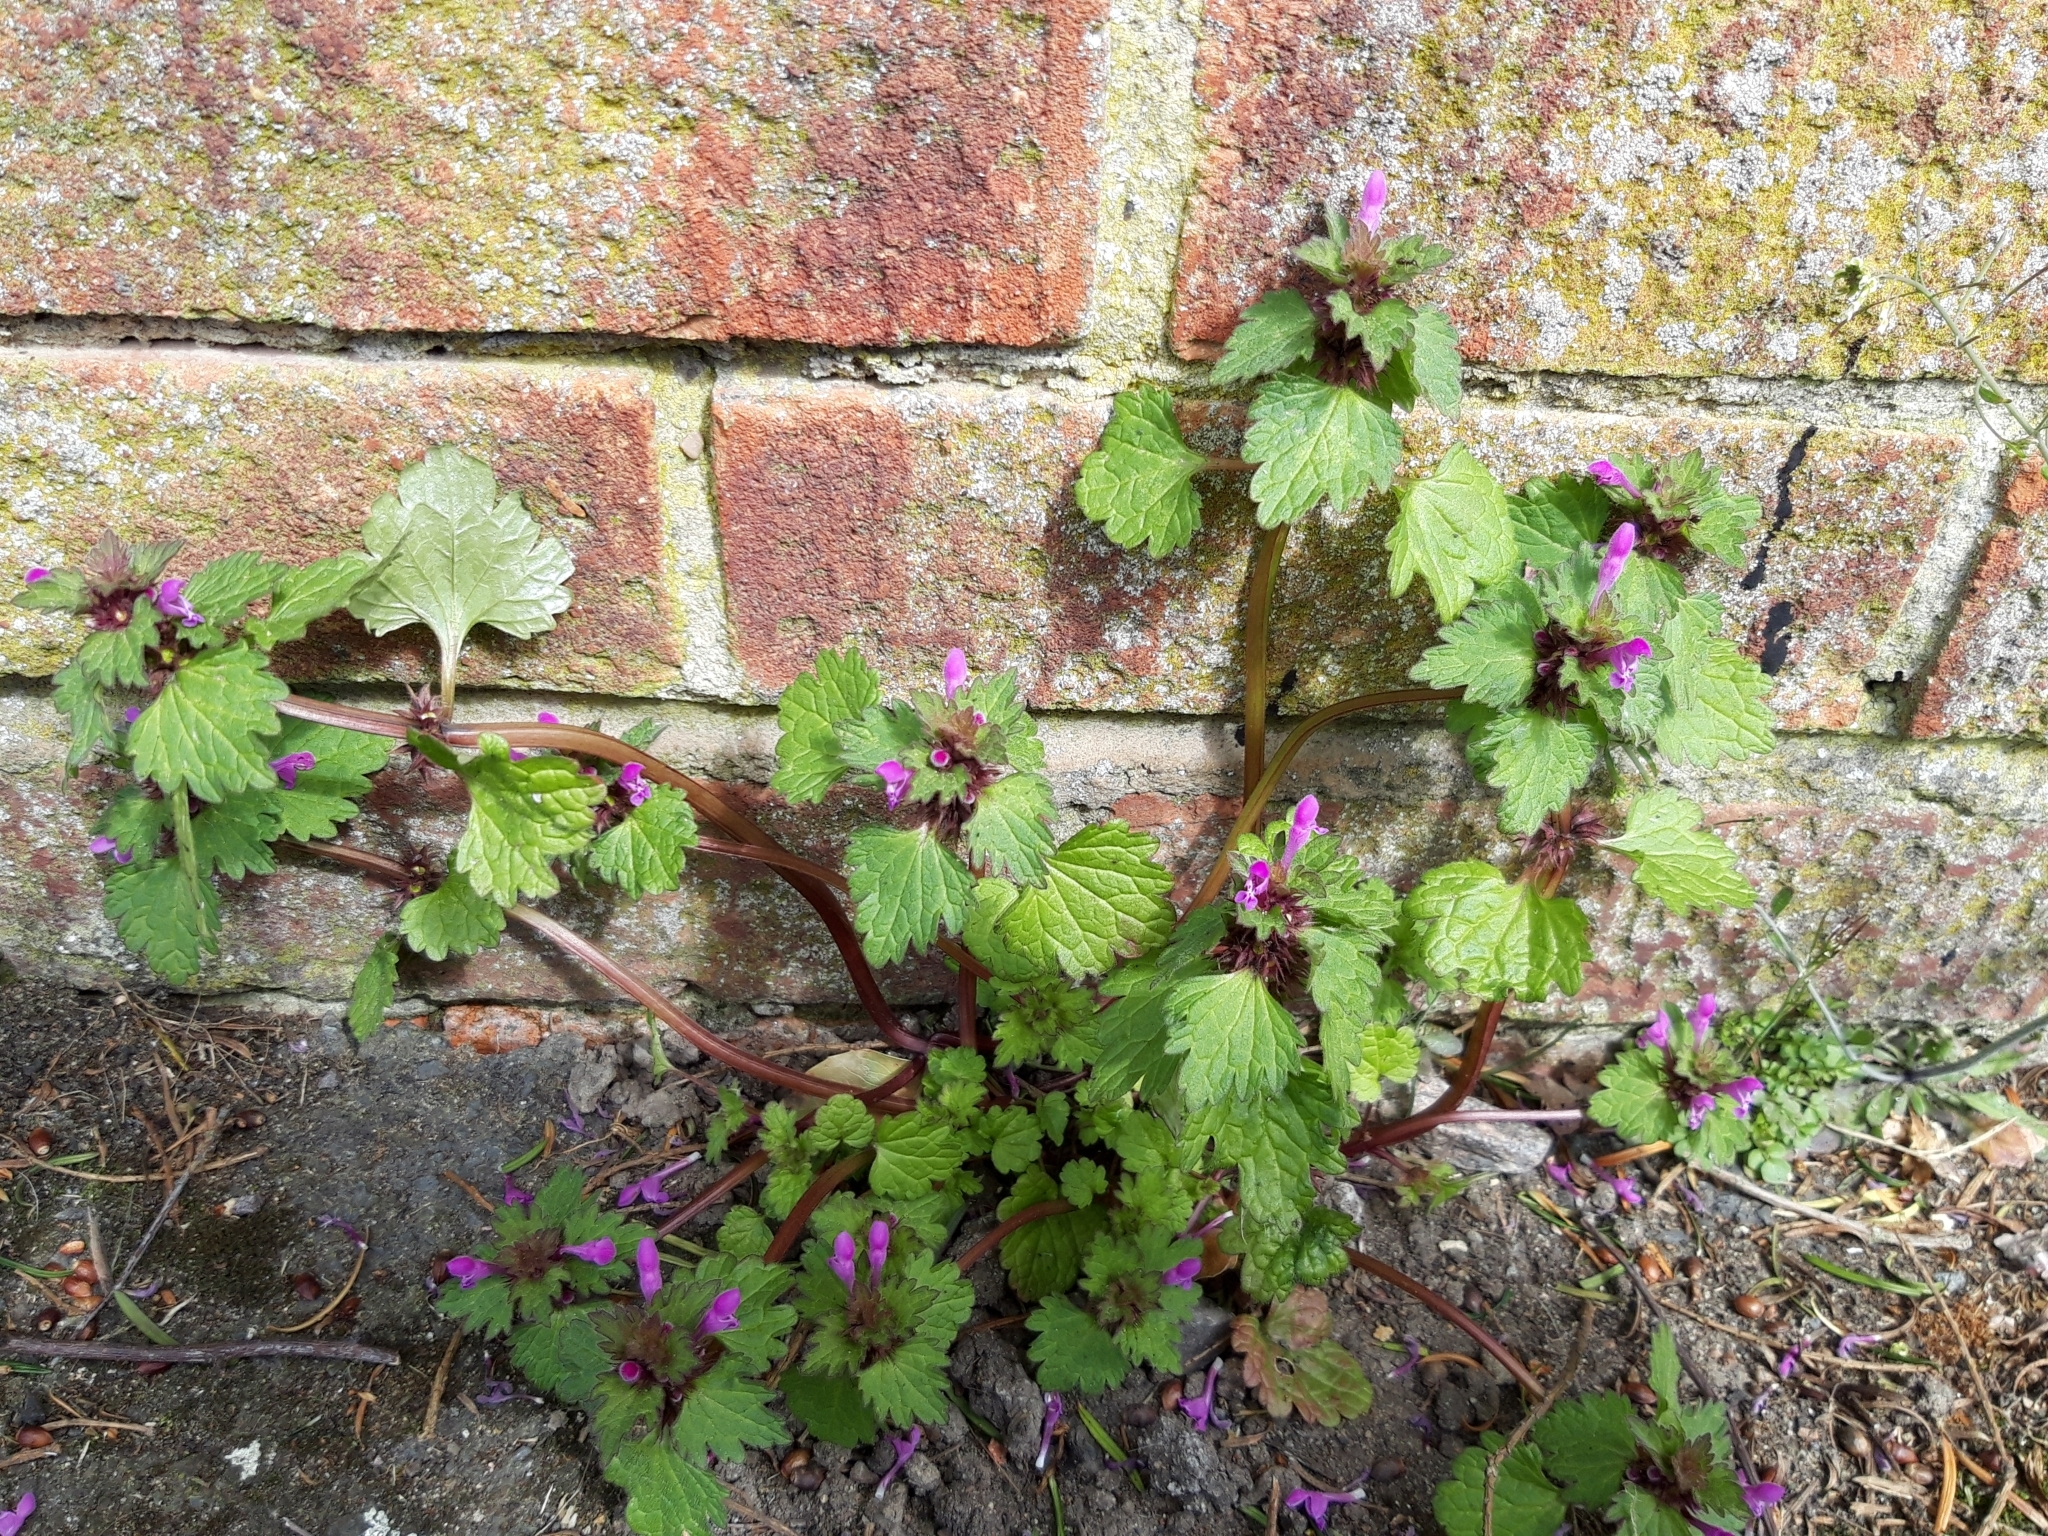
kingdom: Plantae
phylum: Tracheophyta
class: Magnoliopsida
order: Lamiales
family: Lamiaceae
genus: Lamium
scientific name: Lamium hybridum
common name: Cut-leaved dead-nettle
